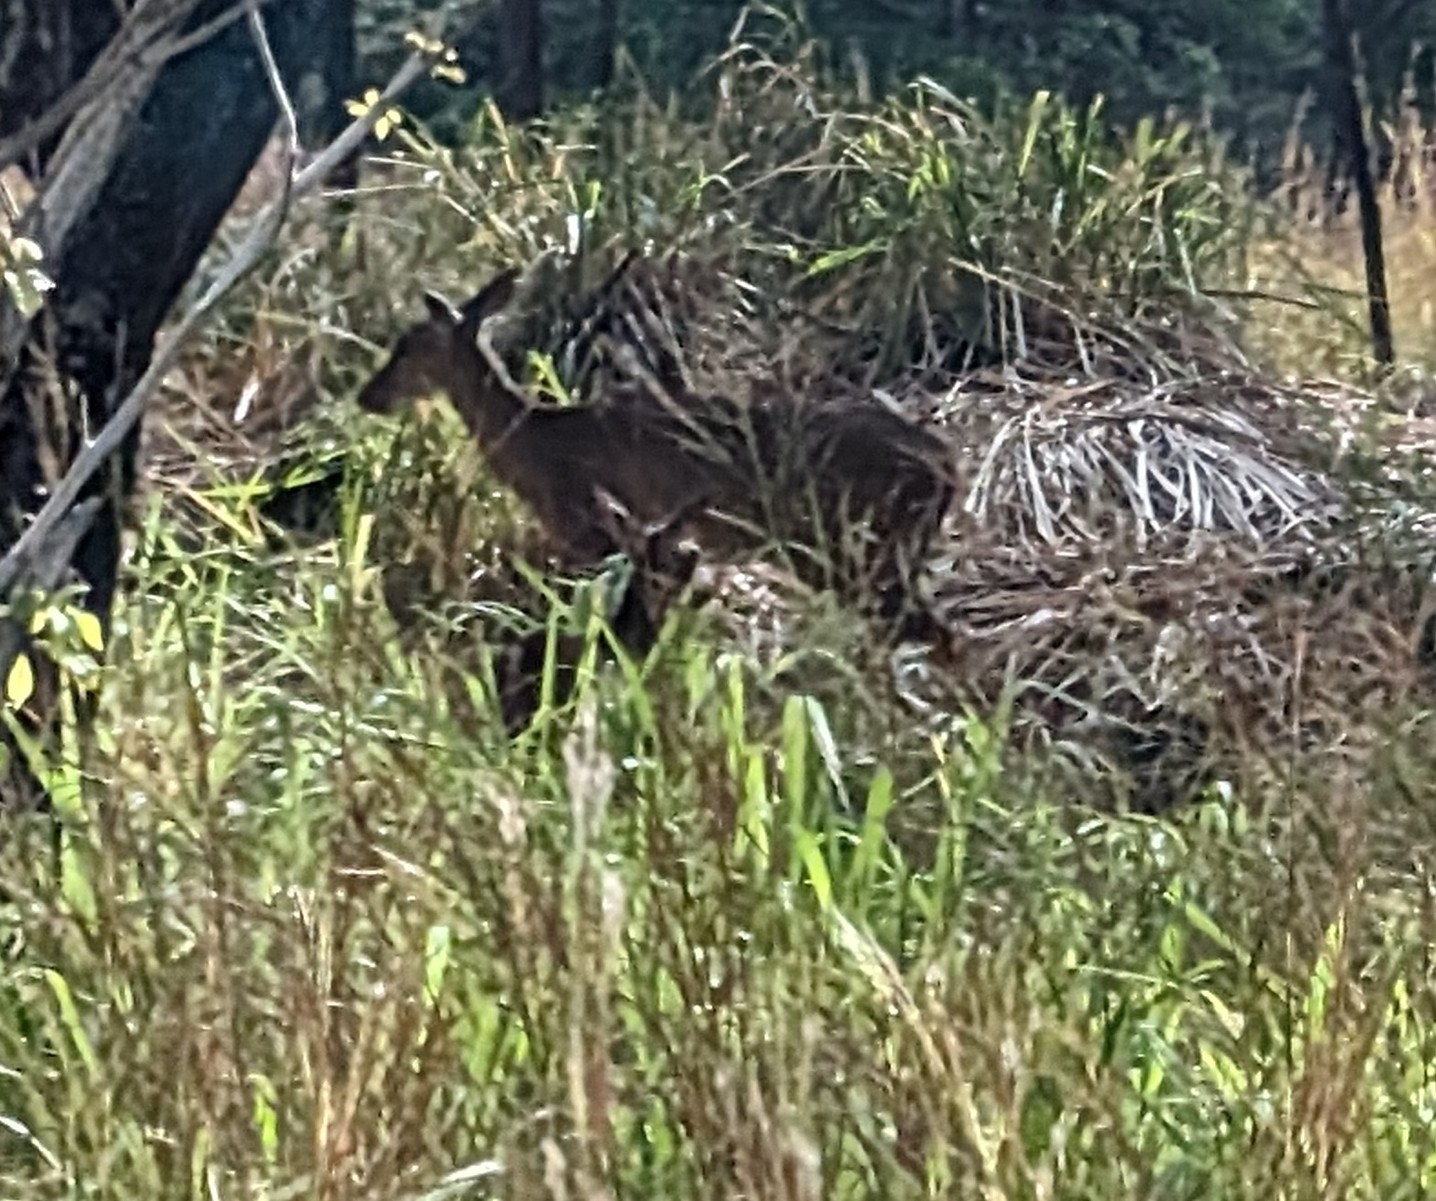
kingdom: Animalia
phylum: Chordata
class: Mammalia
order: Artiodactyla
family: Cervidae
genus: Odocoileus
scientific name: Odocoileus virginianus
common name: White-tailed deer
